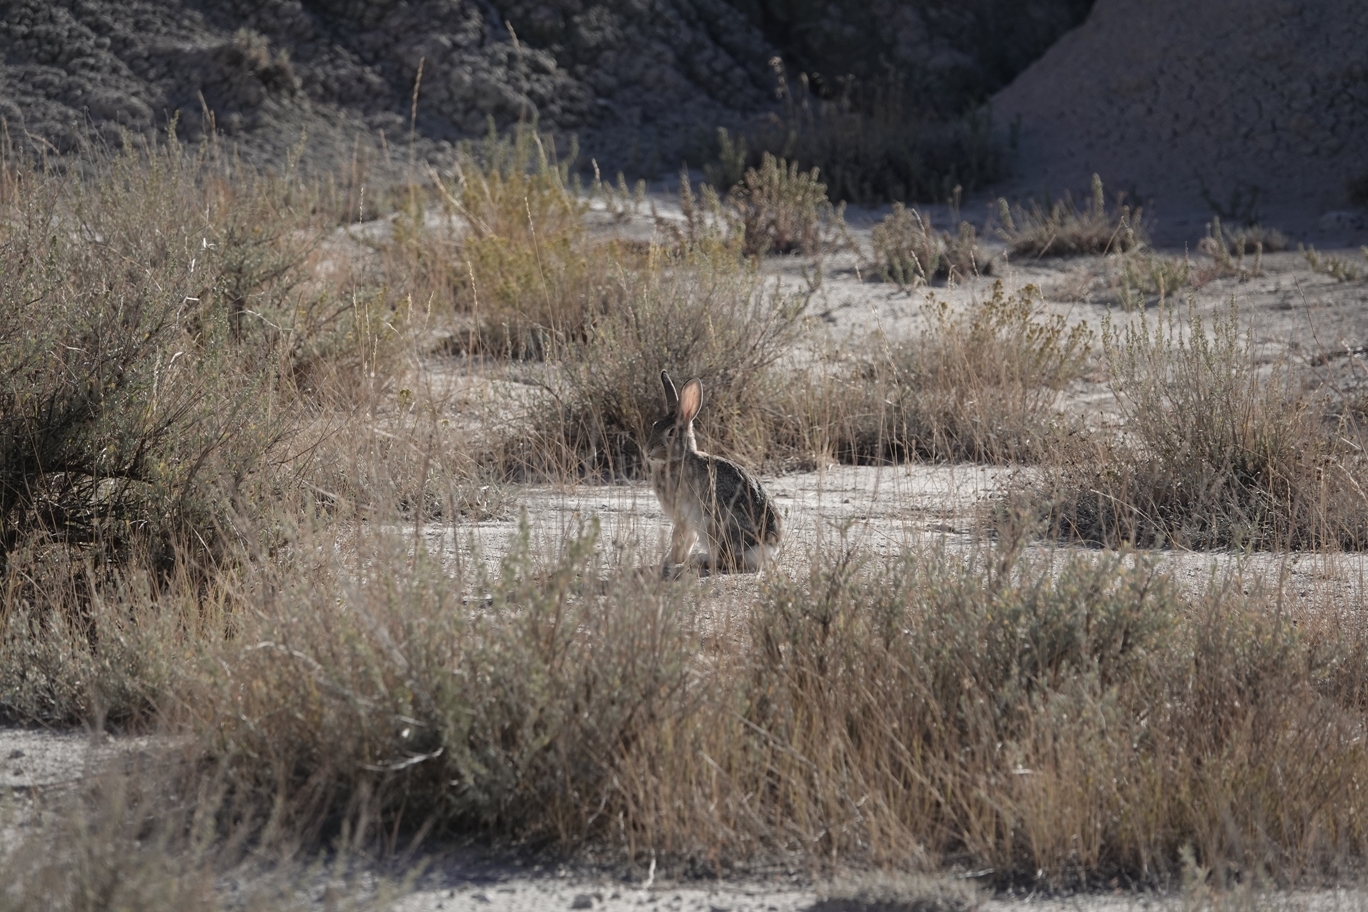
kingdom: Animalia
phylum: Chordata
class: Mammalia
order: Lagomorpha
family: Leporidae
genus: Sylvilagus
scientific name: Sylvilagus audubonii
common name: Desert cottontail
